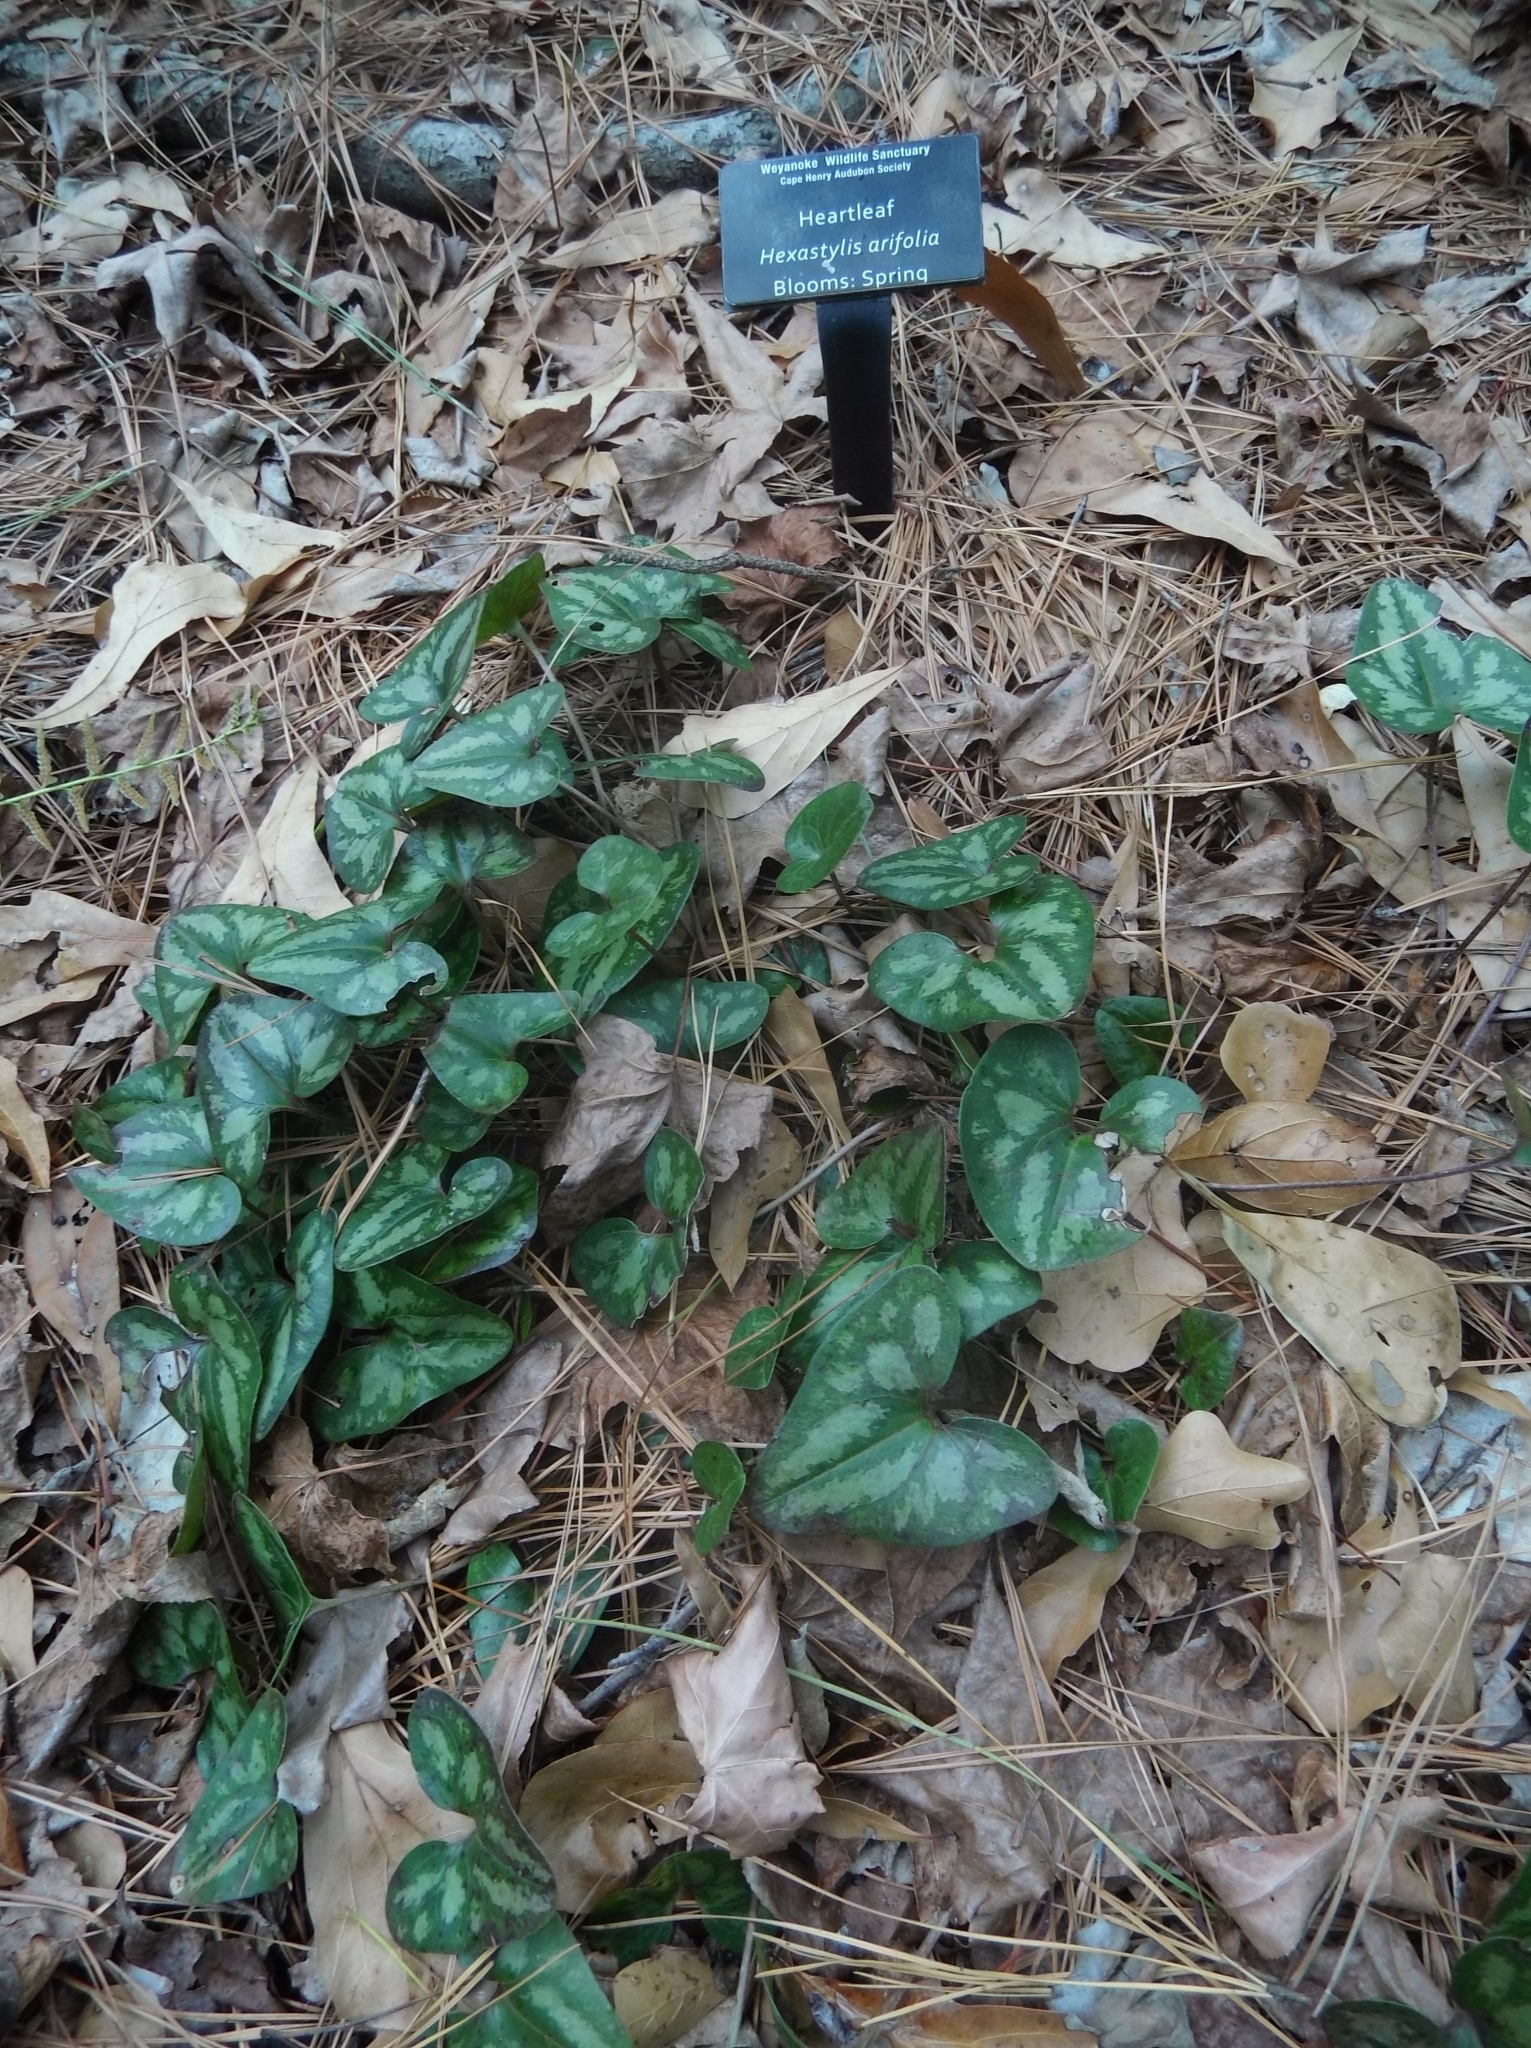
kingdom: Plantae
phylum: Tracheophyta
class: Magnoliopsida
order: Piperales
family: Aristolochiaceae
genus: Hexastylis
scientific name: Hexastylis arifolia
